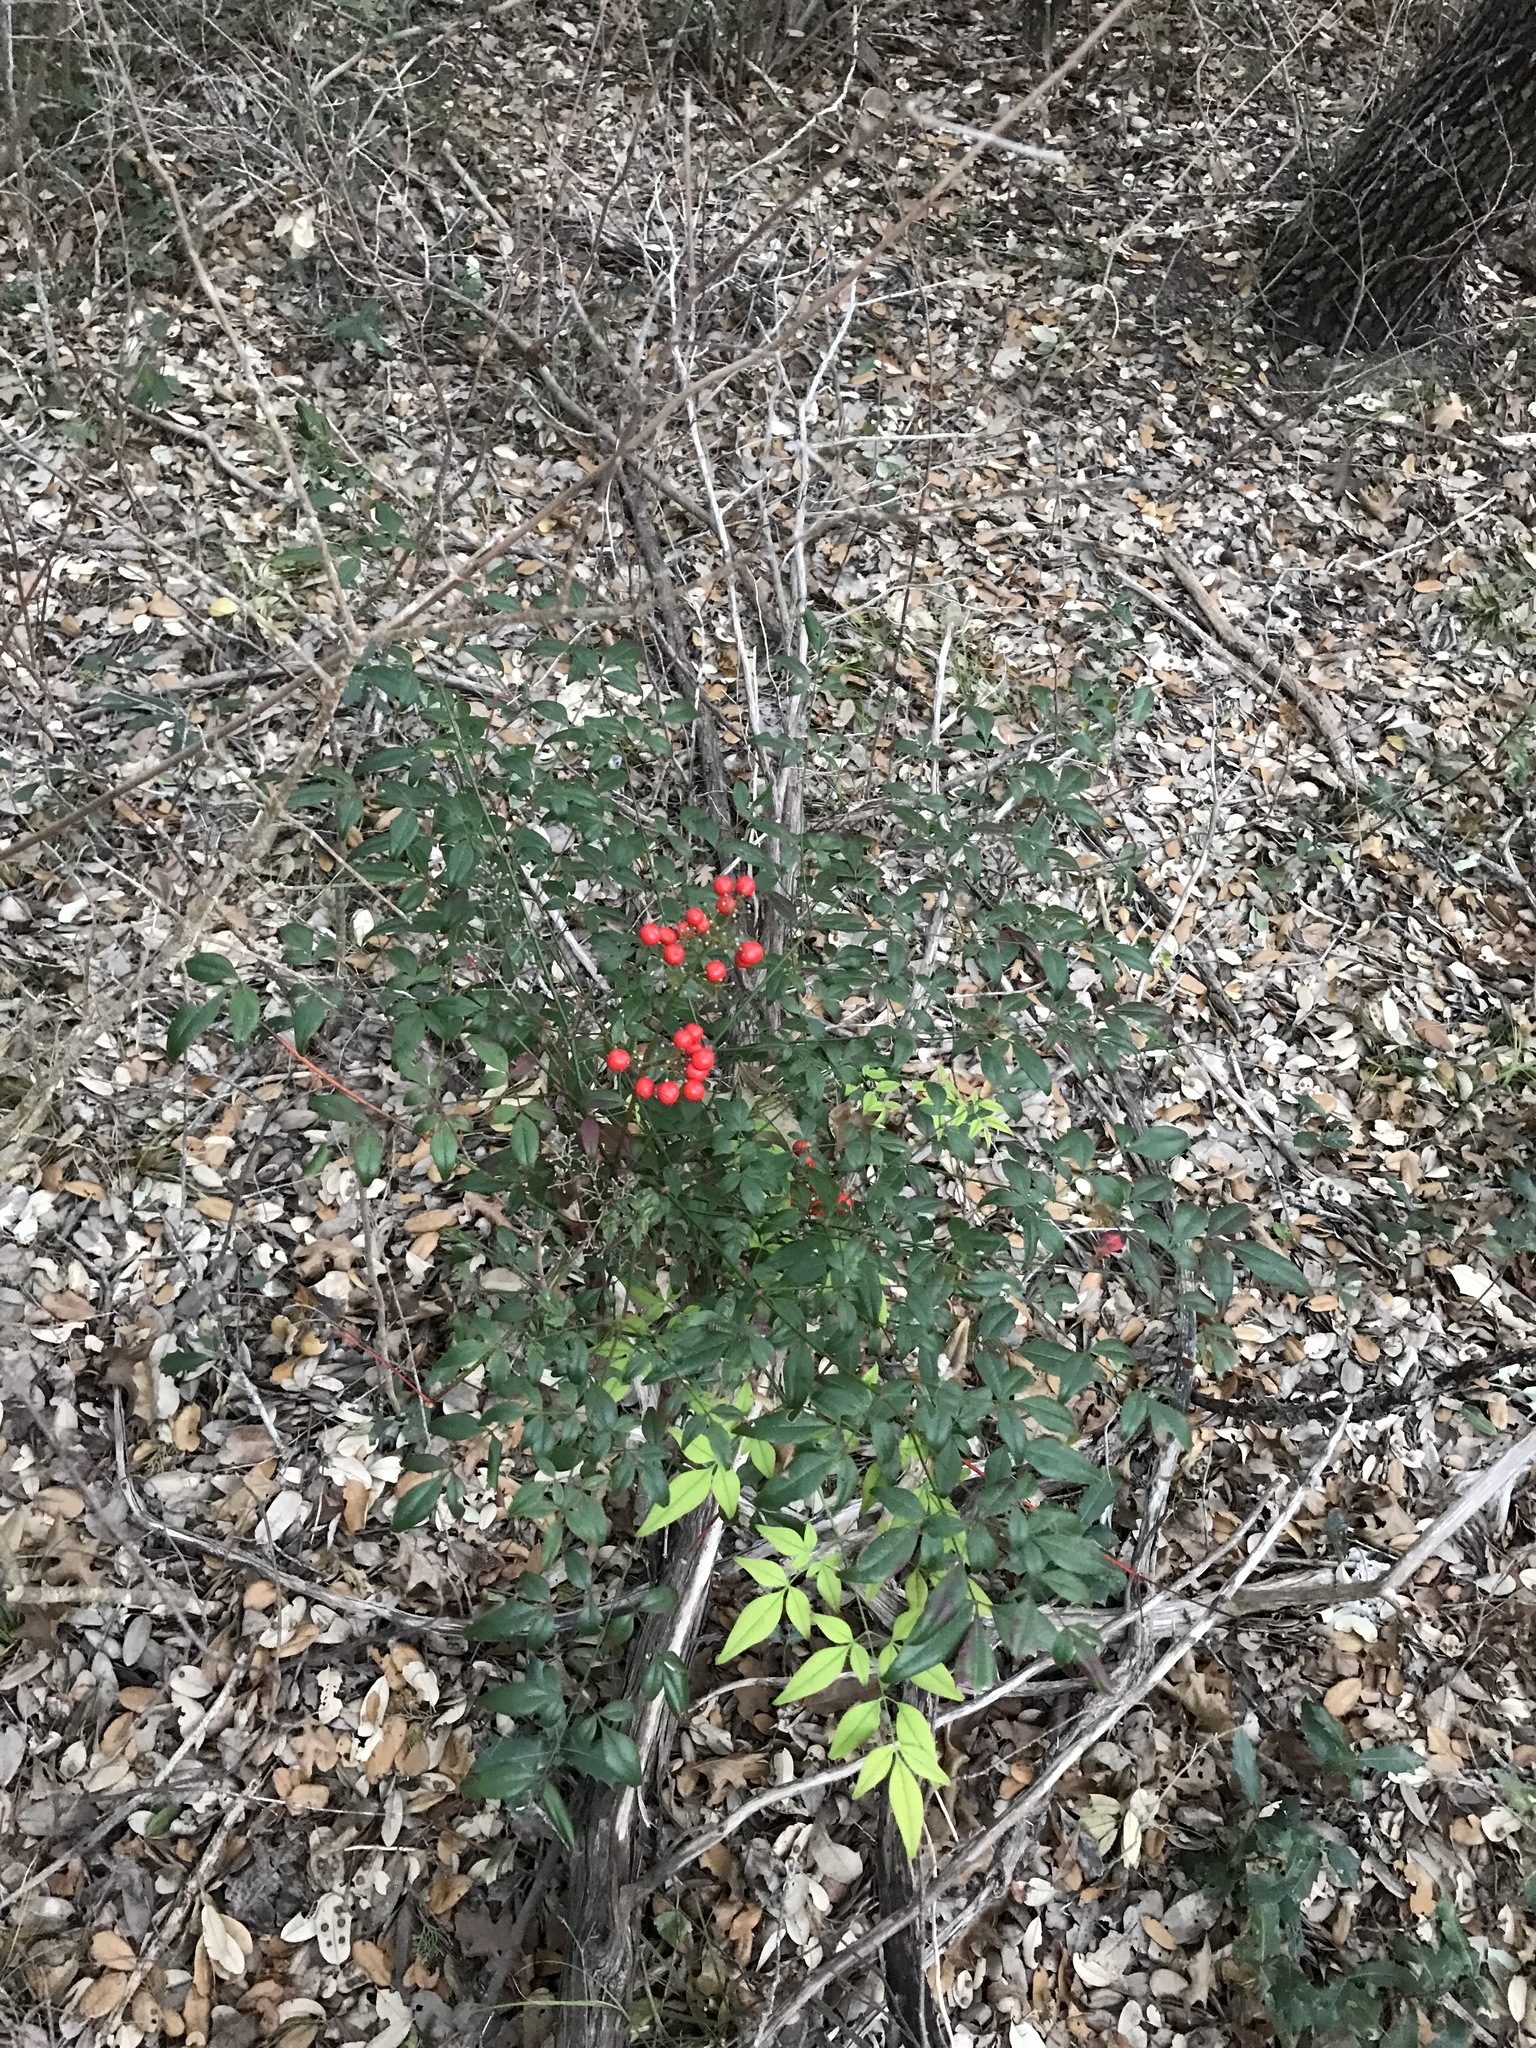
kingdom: Plantae
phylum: Tracheophyta
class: Magnoliopsida
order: Ranunculales
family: Berberidaceae
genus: Nandina
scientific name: Nandina domestica
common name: Sacred bamboo
